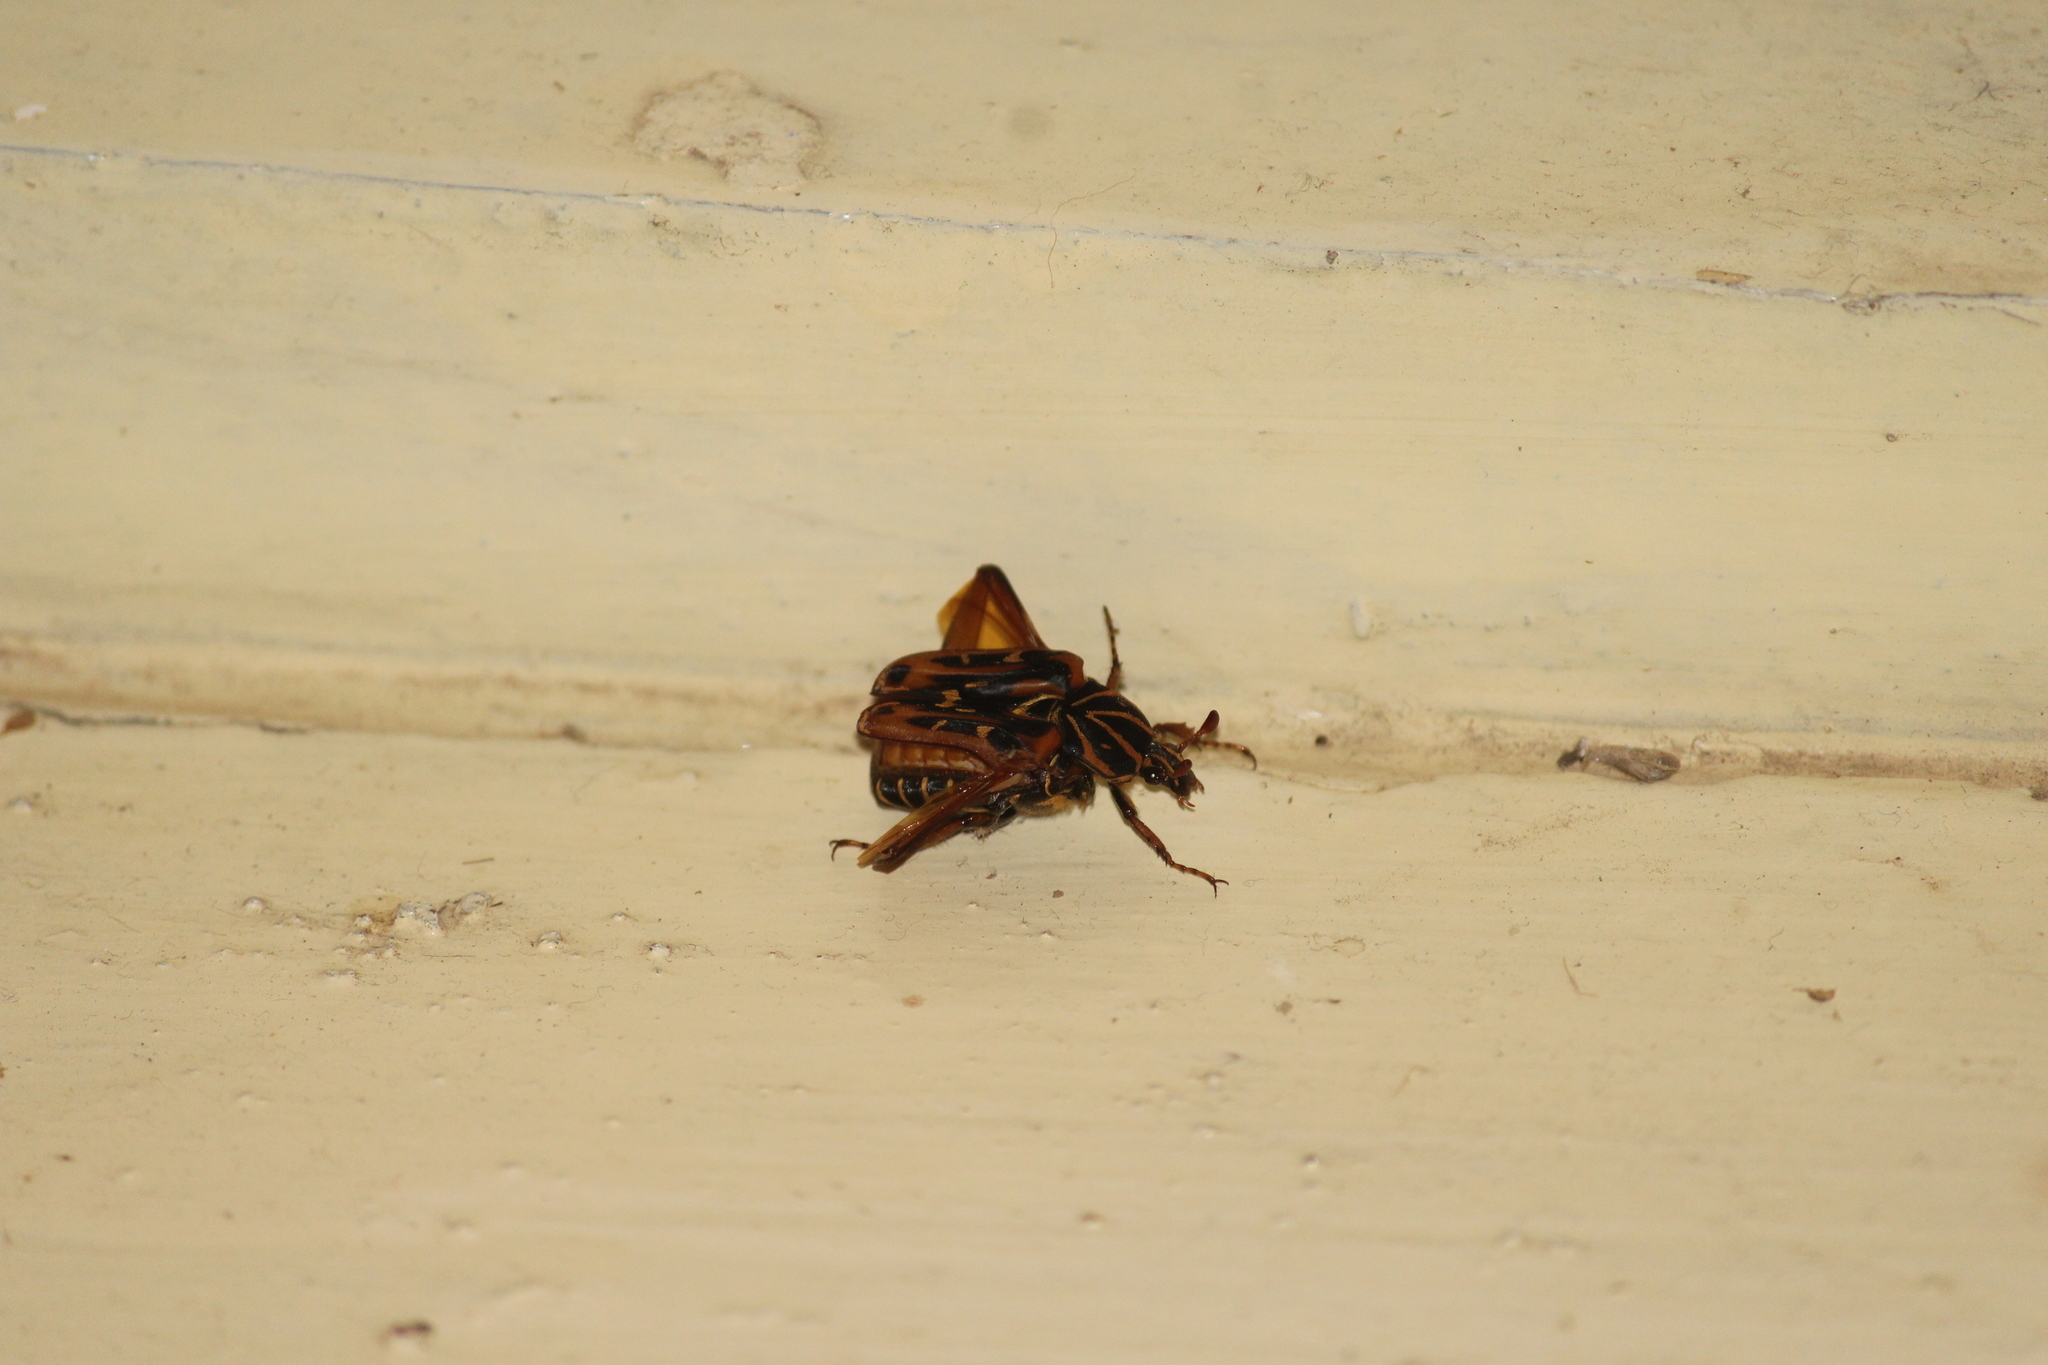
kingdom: Animalia
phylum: Arthropoda
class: Insecta
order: Coleoptera
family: Scarabaeidae
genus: Taeniodera
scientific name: Taeniodera sannio
